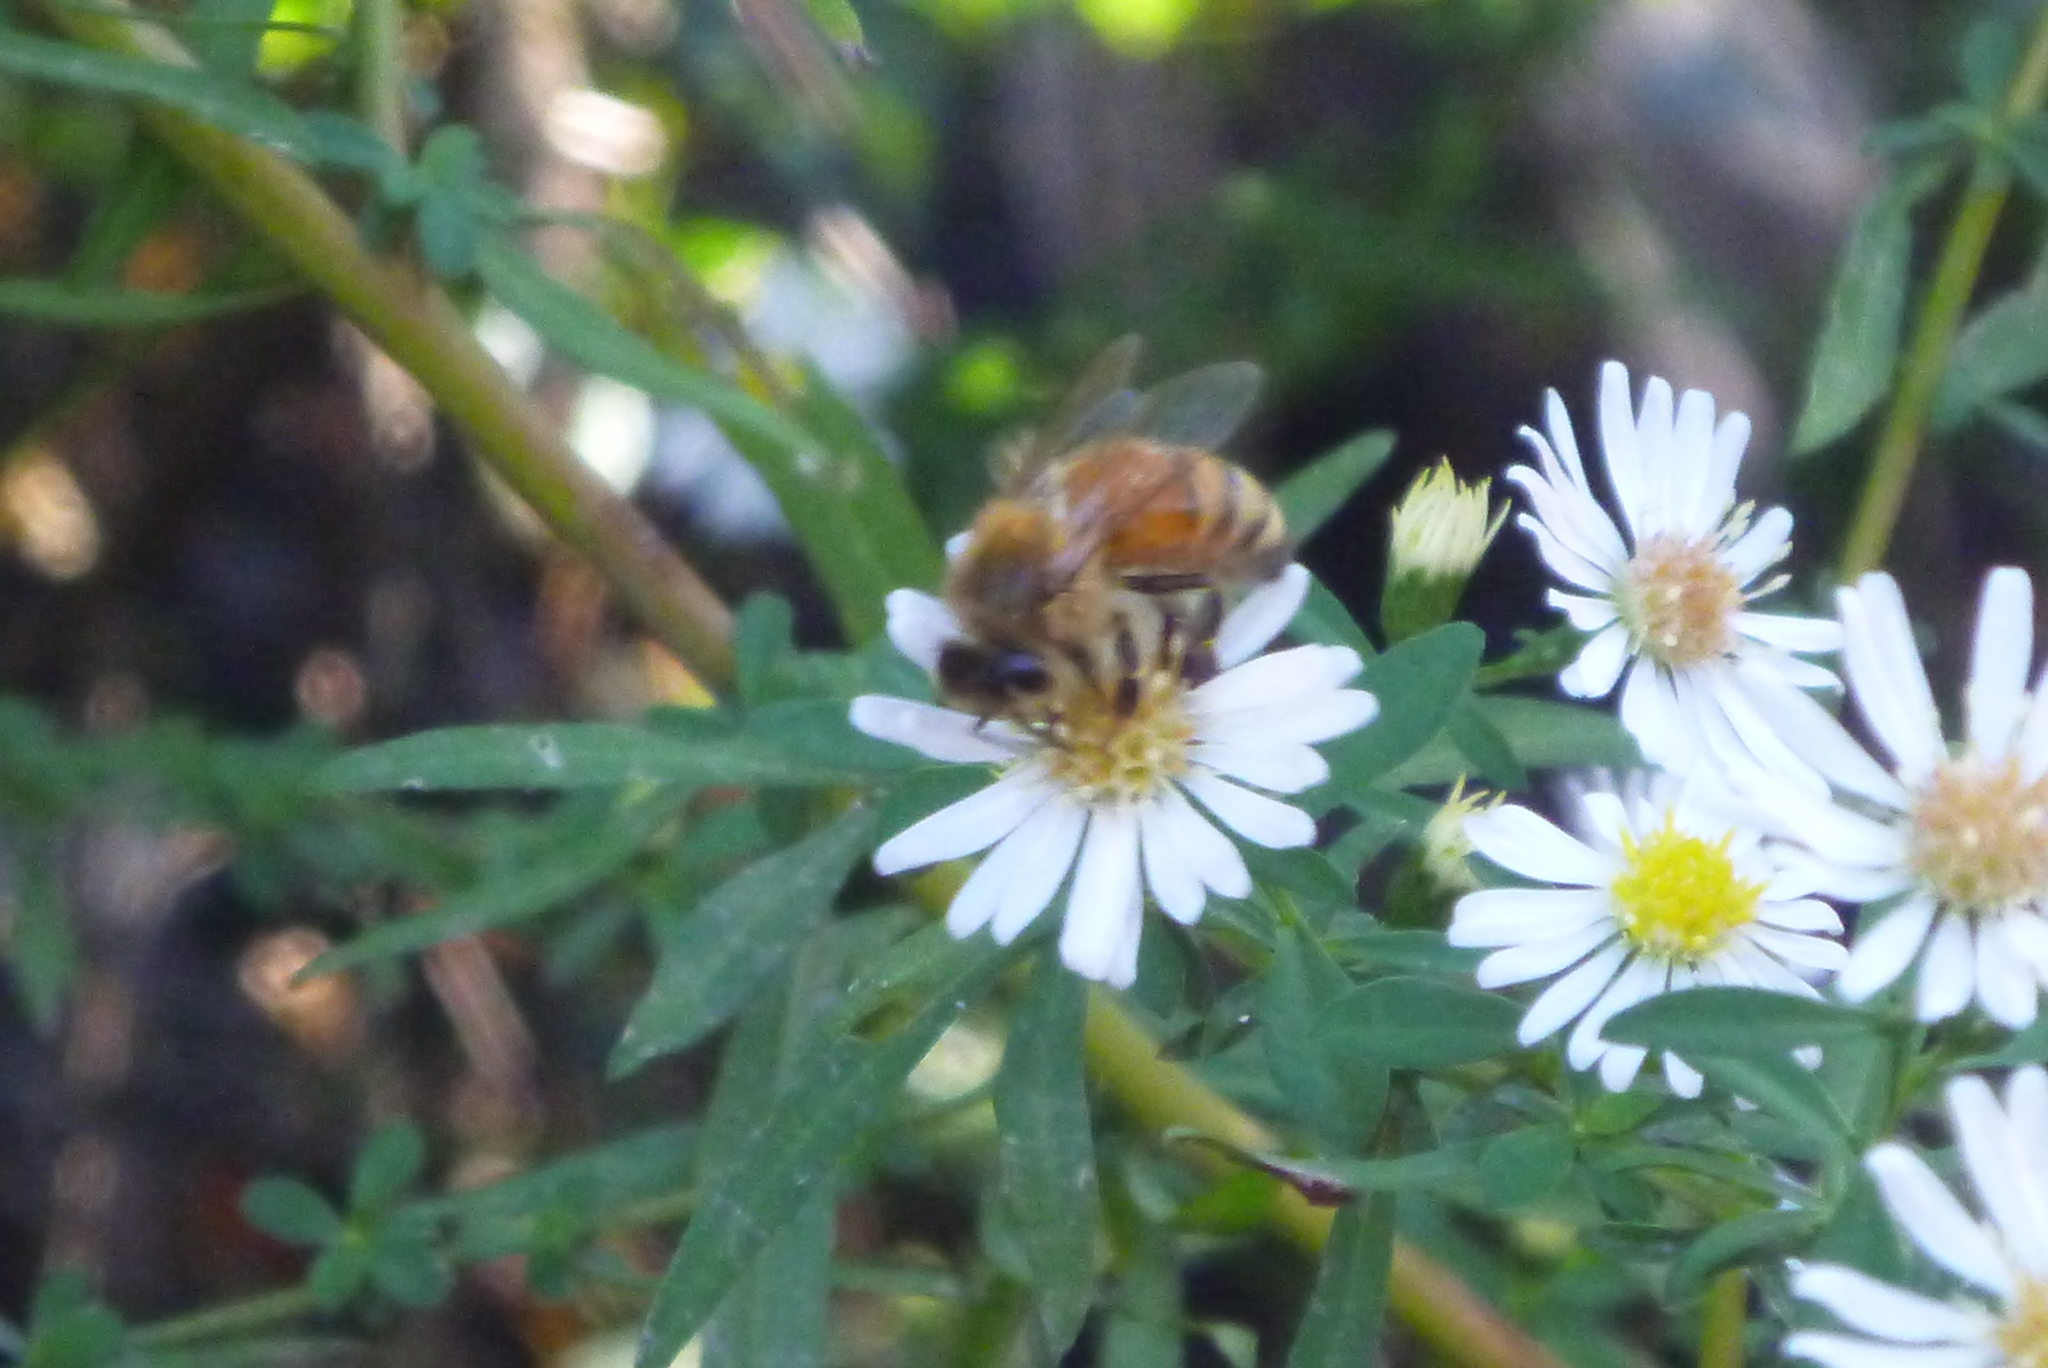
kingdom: Animalia
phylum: Arthropoda
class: Insecta
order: Hymenoptera
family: Apidae
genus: Apis
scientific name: Apis mellifera
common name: Honey bee
